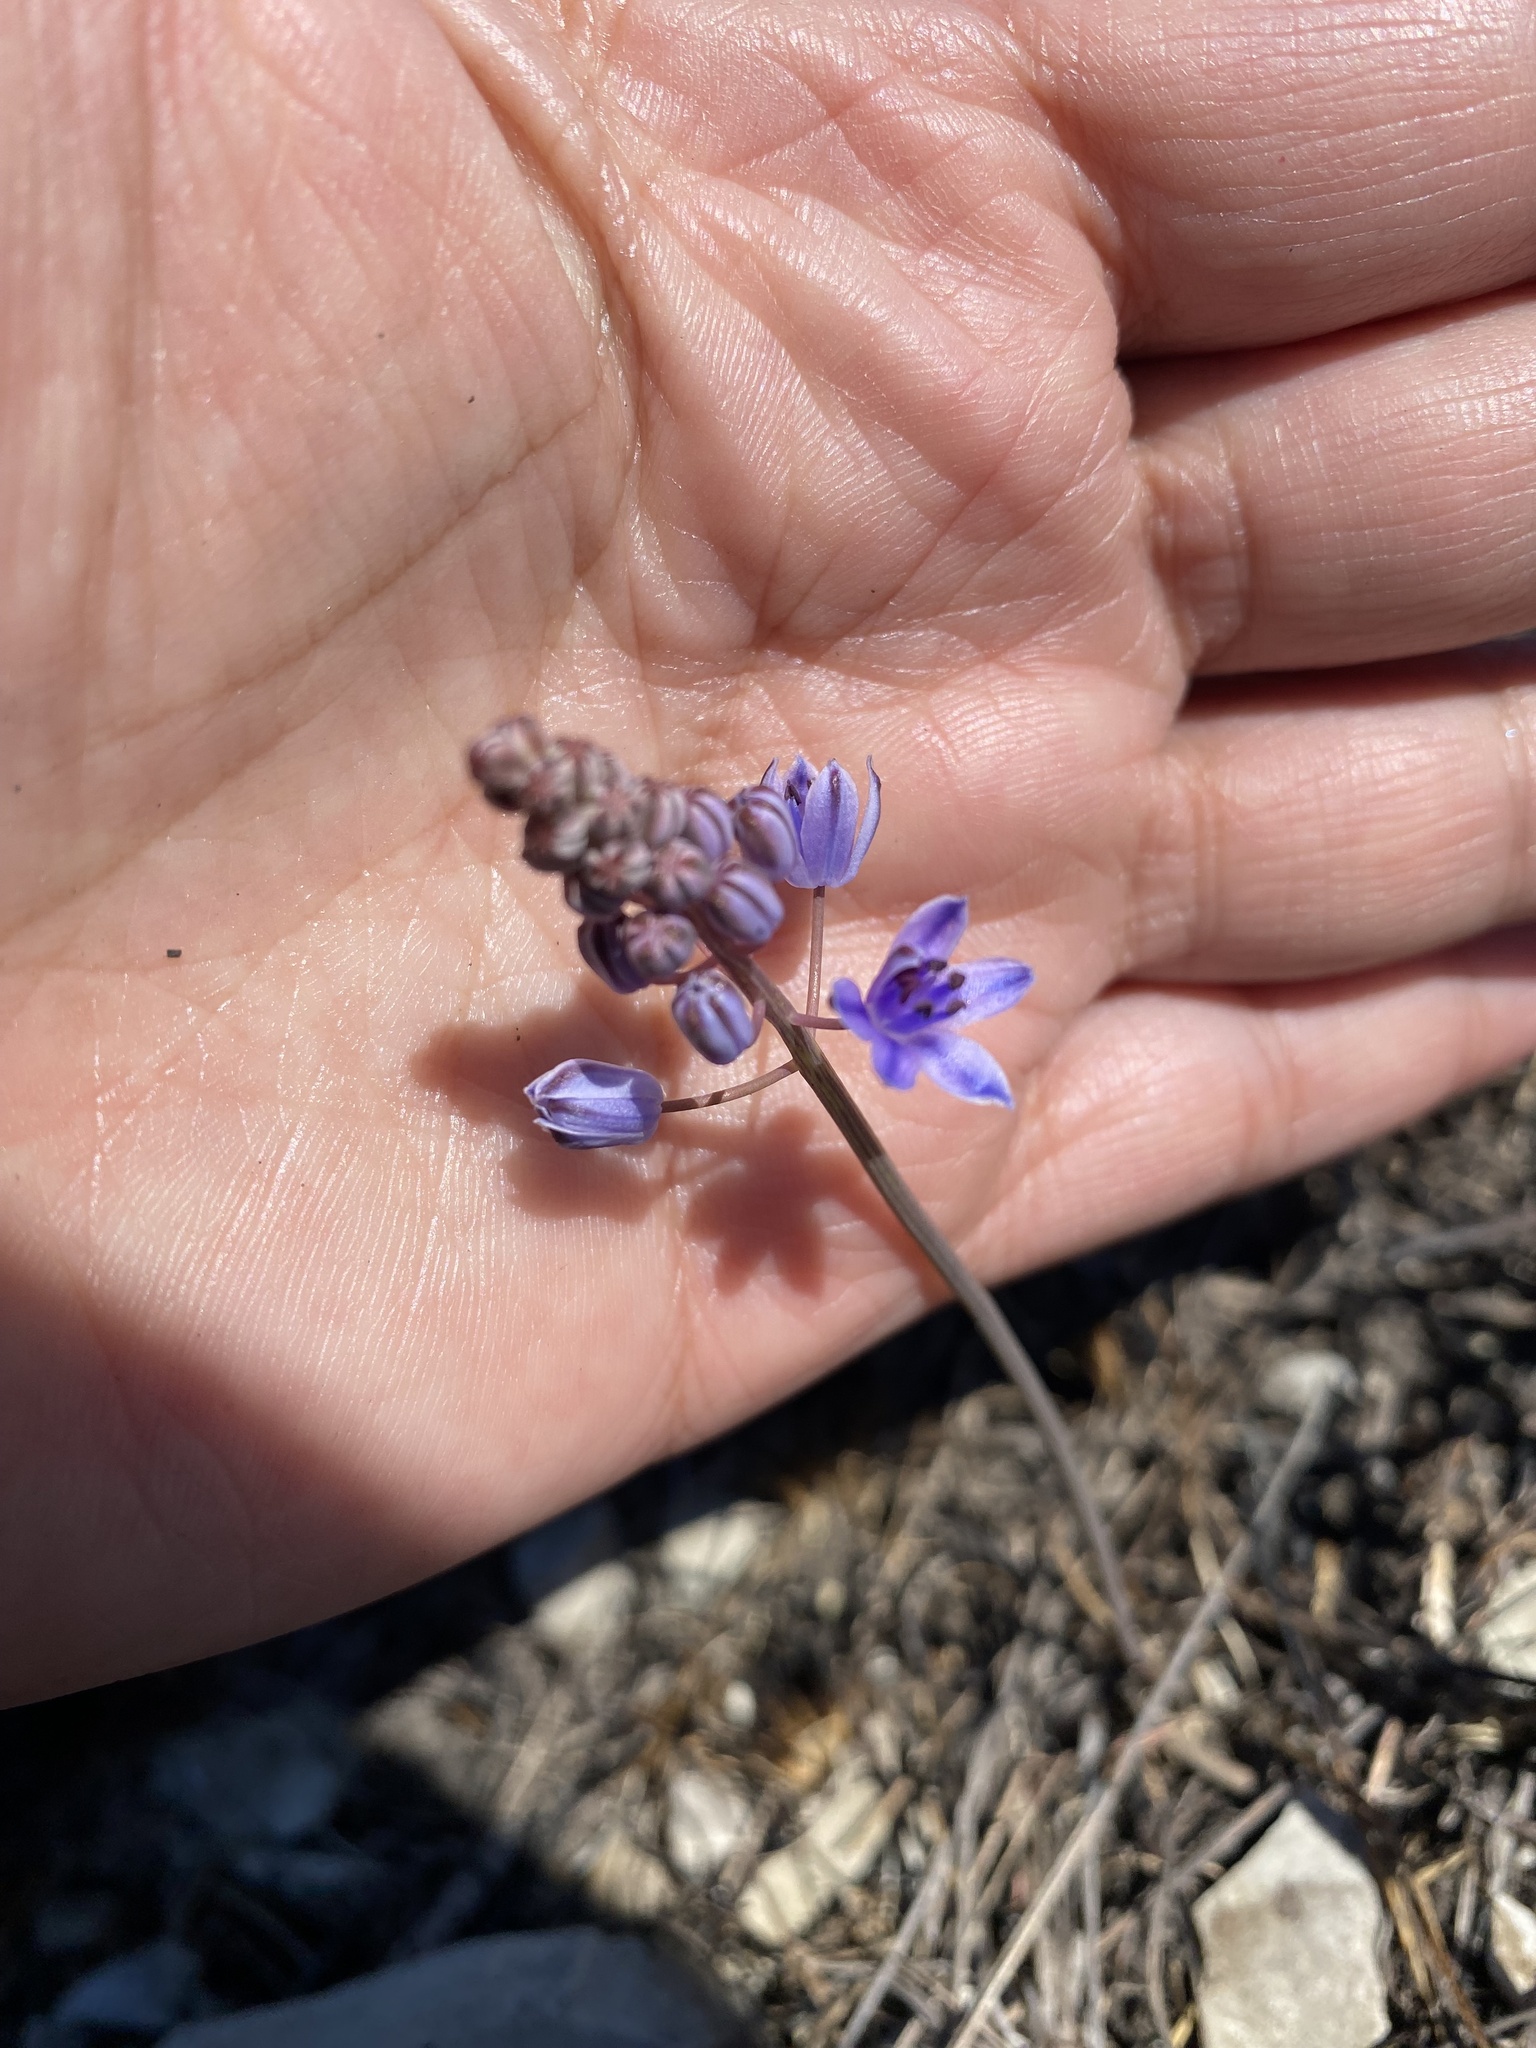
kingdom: Plantae
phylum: Tracheophyta
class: Liliopsida
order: Asparagales
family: Asparagaceae
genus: Prospero
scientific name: Prospero autumnale
